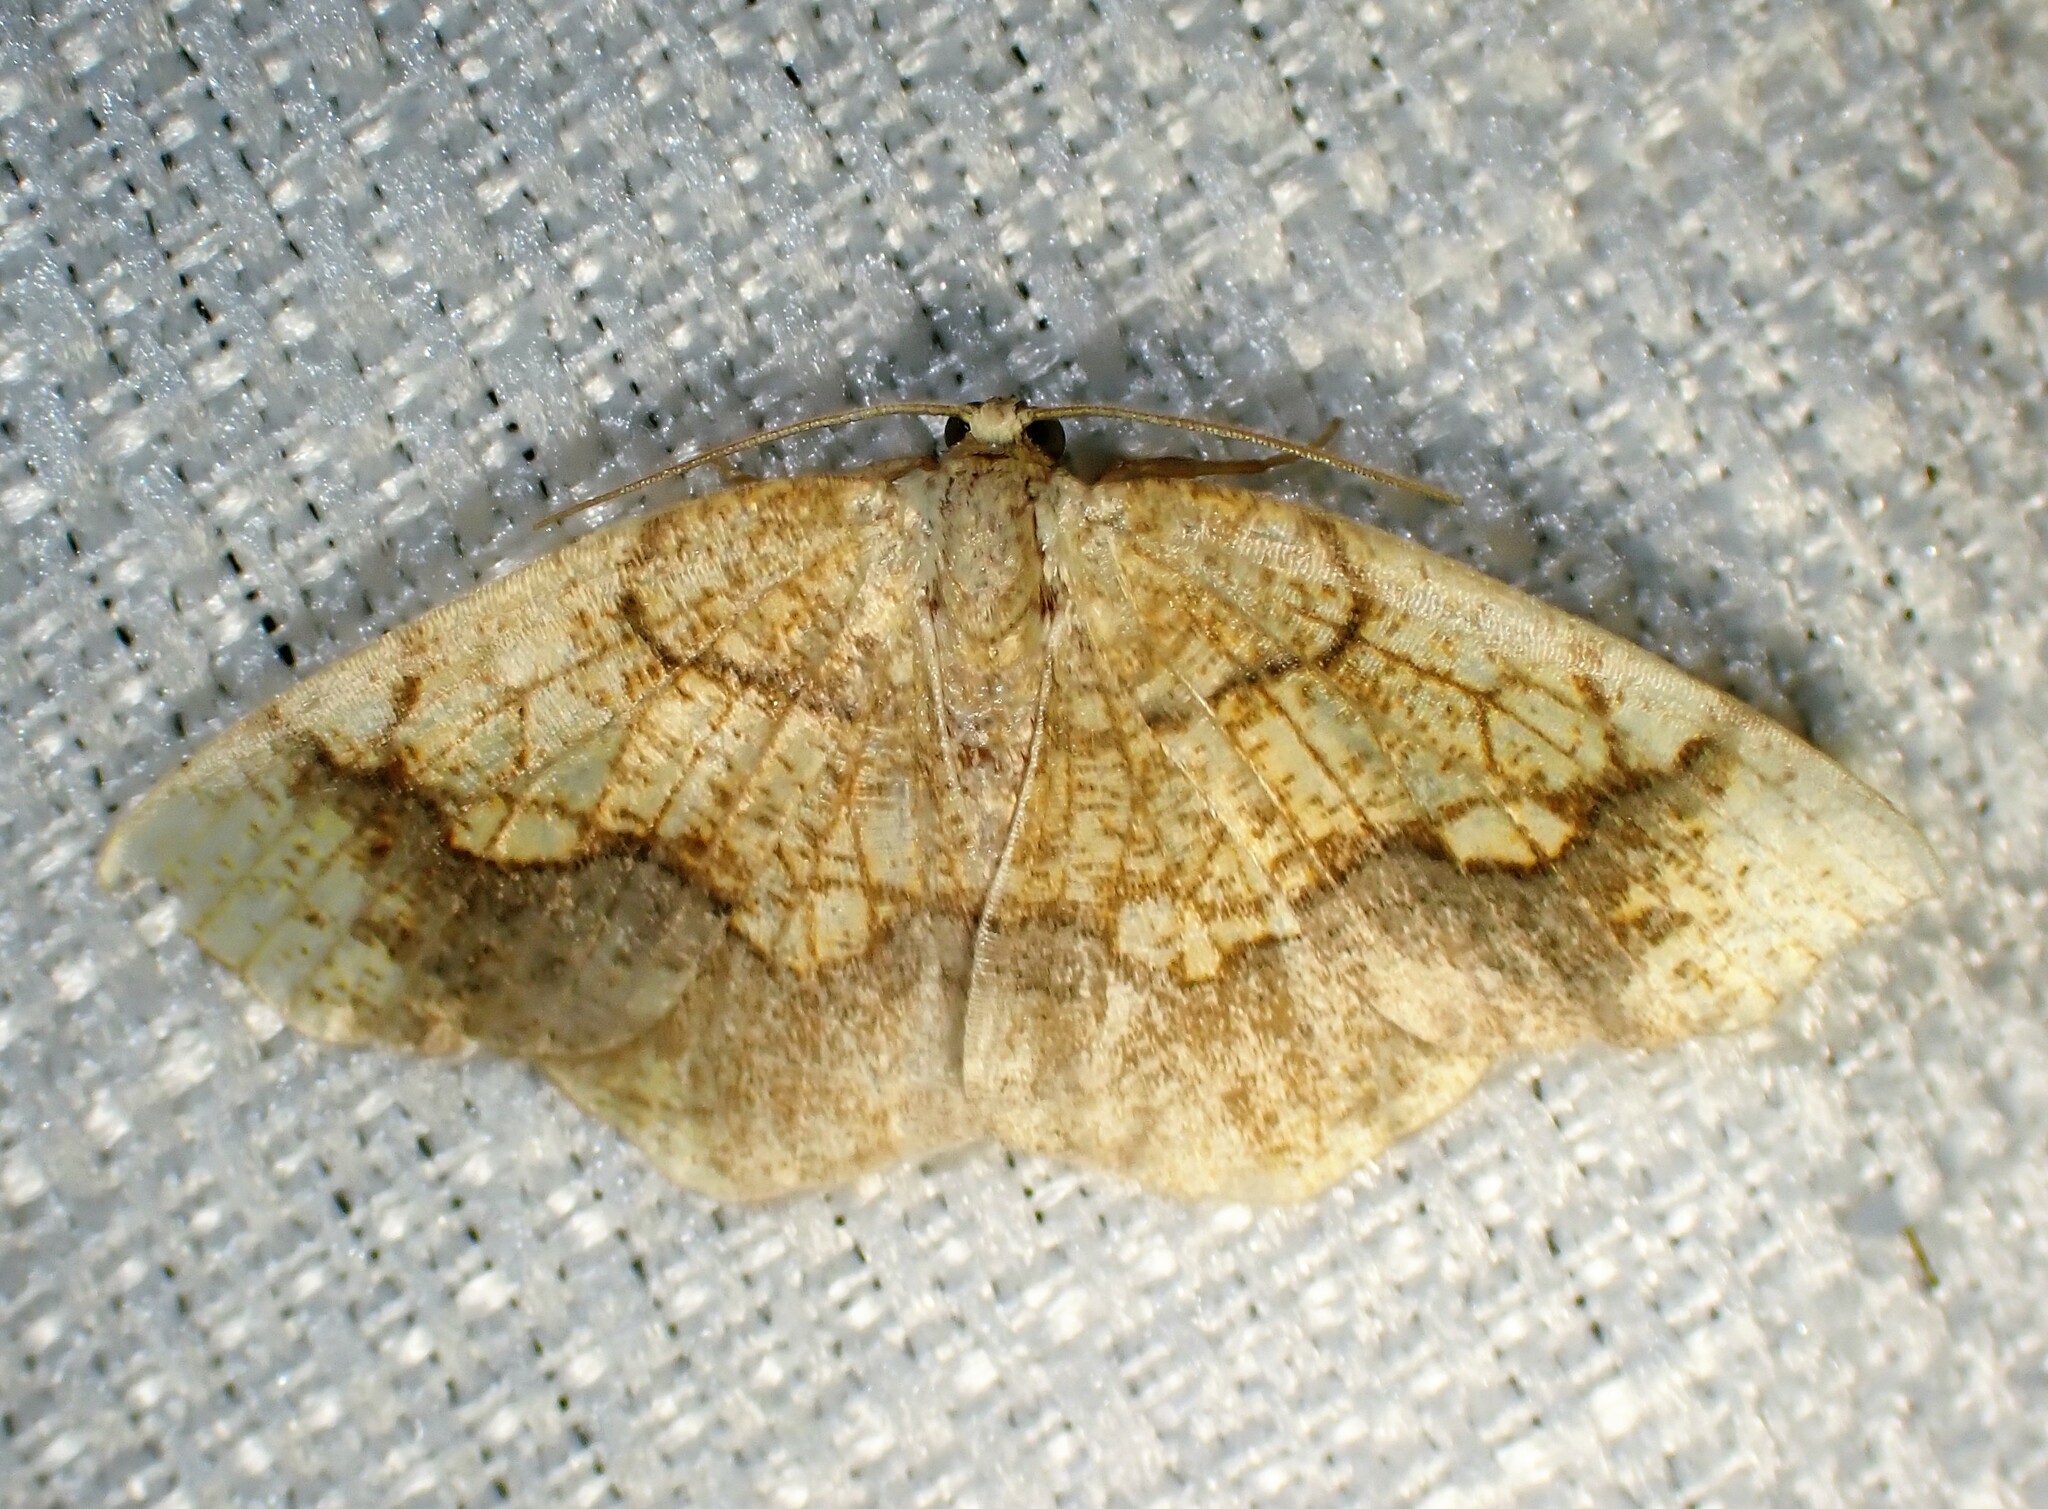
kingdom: Animalia
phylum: Arthropoda
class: Insecta
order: Lepidoptera
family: Geometridae
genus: Nematocampa
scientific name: Nematocampa resistaria
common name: Horned spanworm moth
